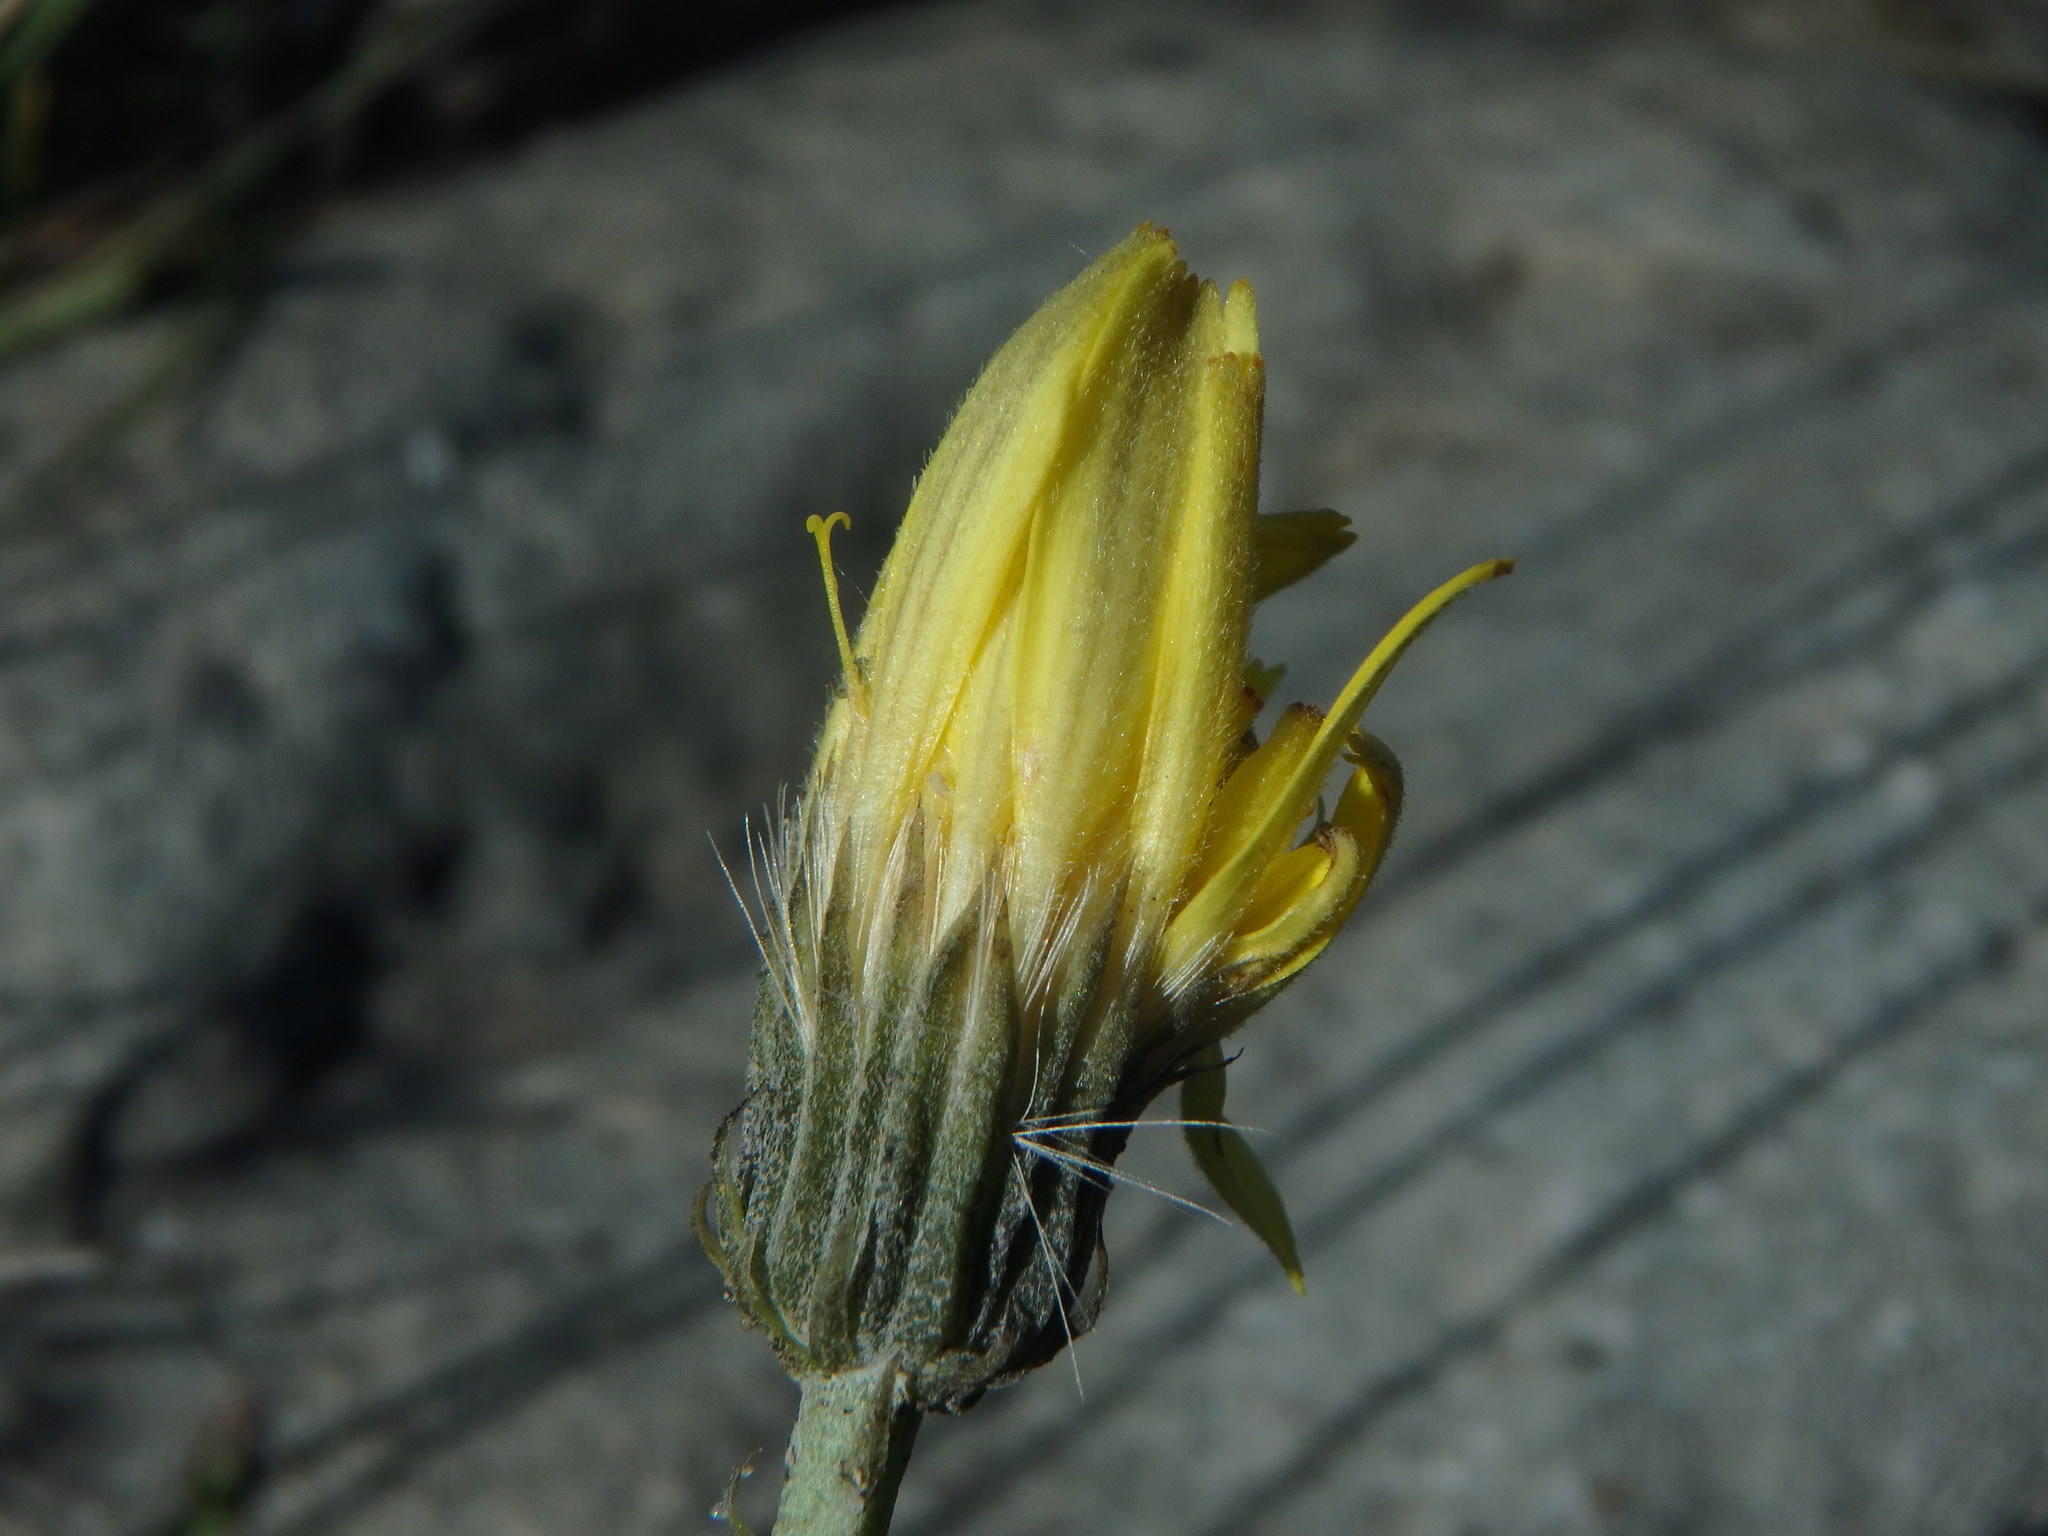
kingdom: Plantae
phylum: Tracheophyta
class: Magnoliopsida
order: Asterales
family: Asteraceae
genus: Tolpis
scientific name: Tolpis staticifolia
